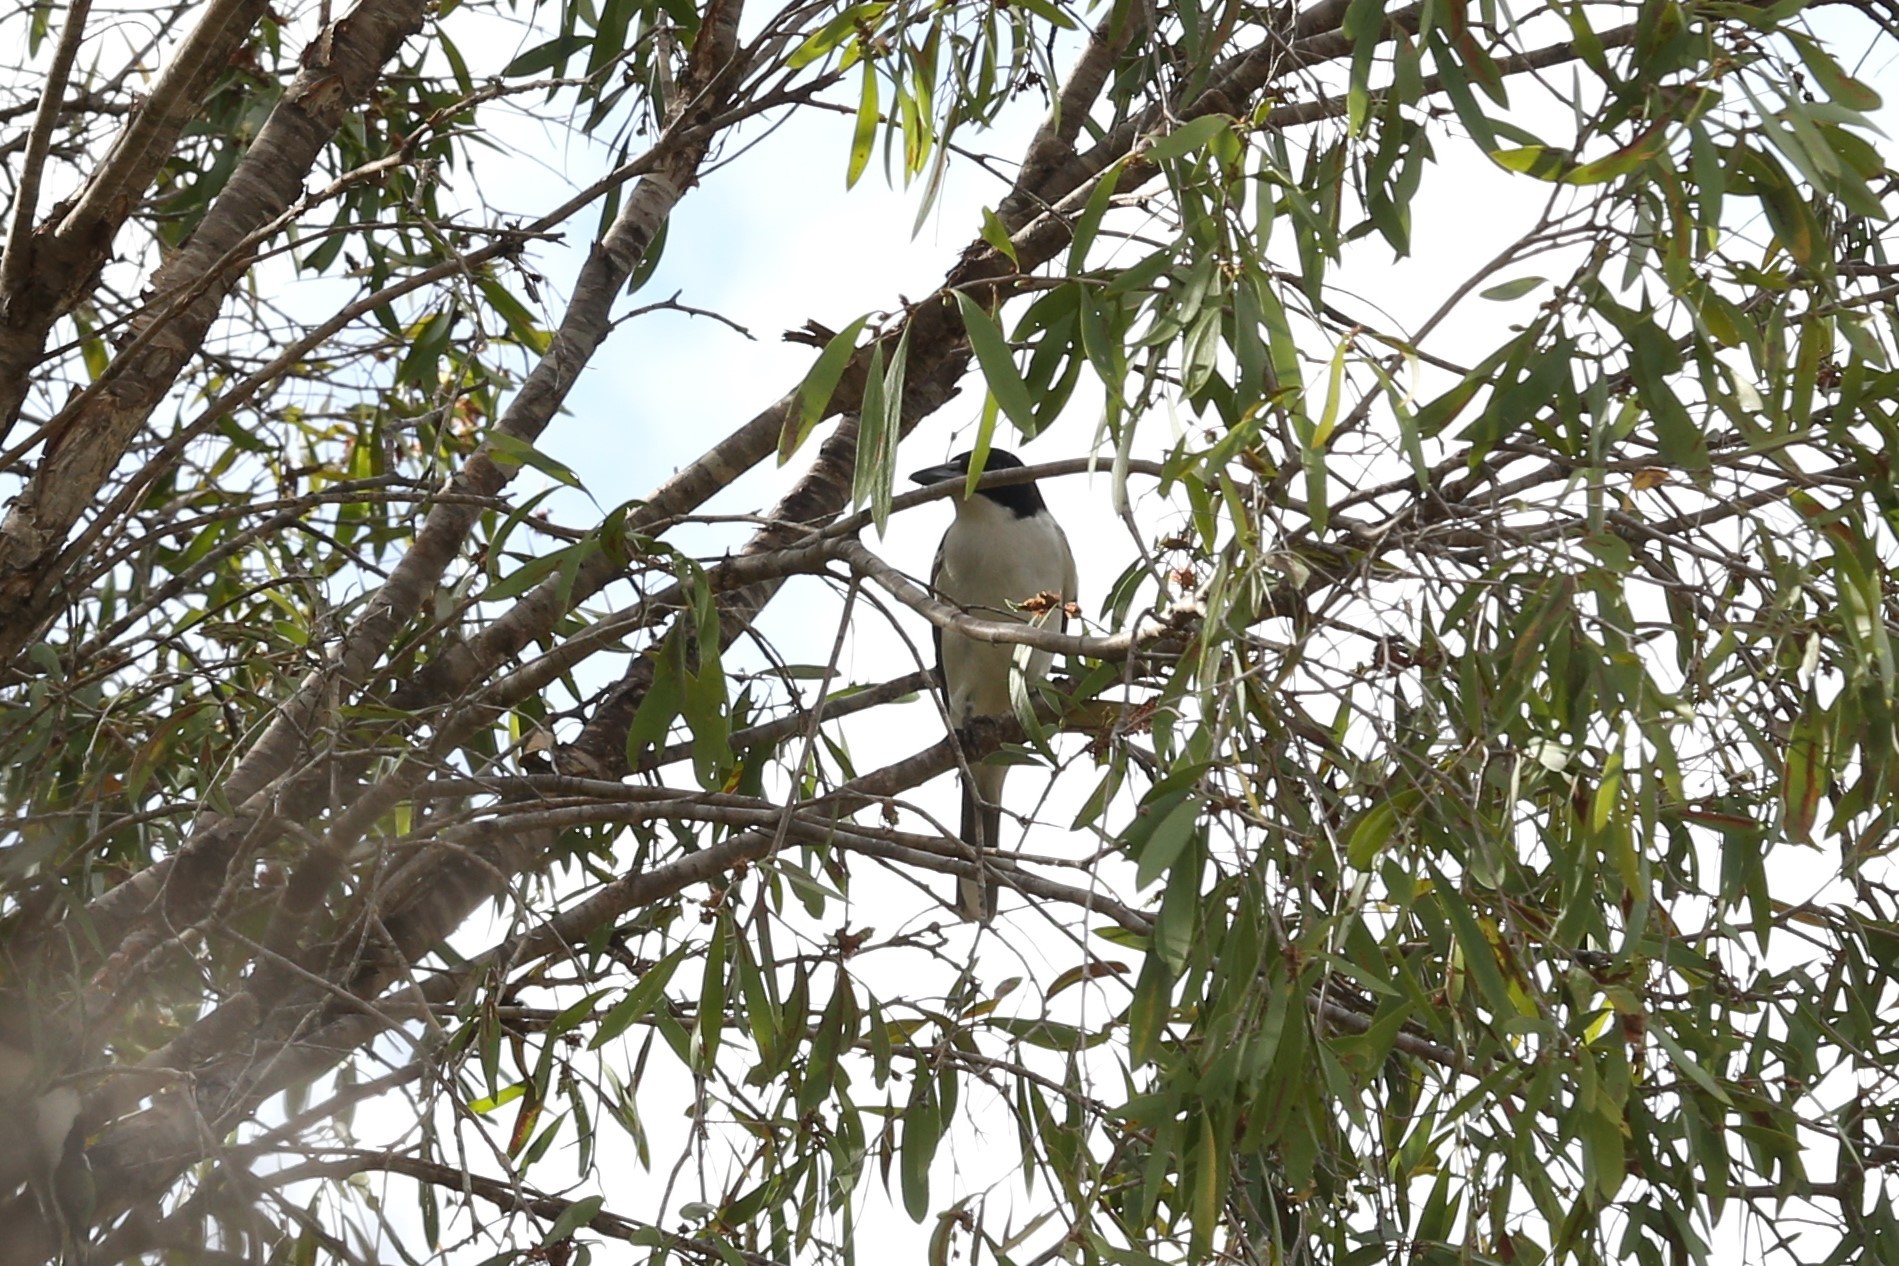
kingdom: Animalia
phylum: Chordata
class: Aves
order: Passeriformes
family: Cracticidae
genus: Cracticus
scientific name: Cracticus mentalis
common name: Black-backed butcherbird
